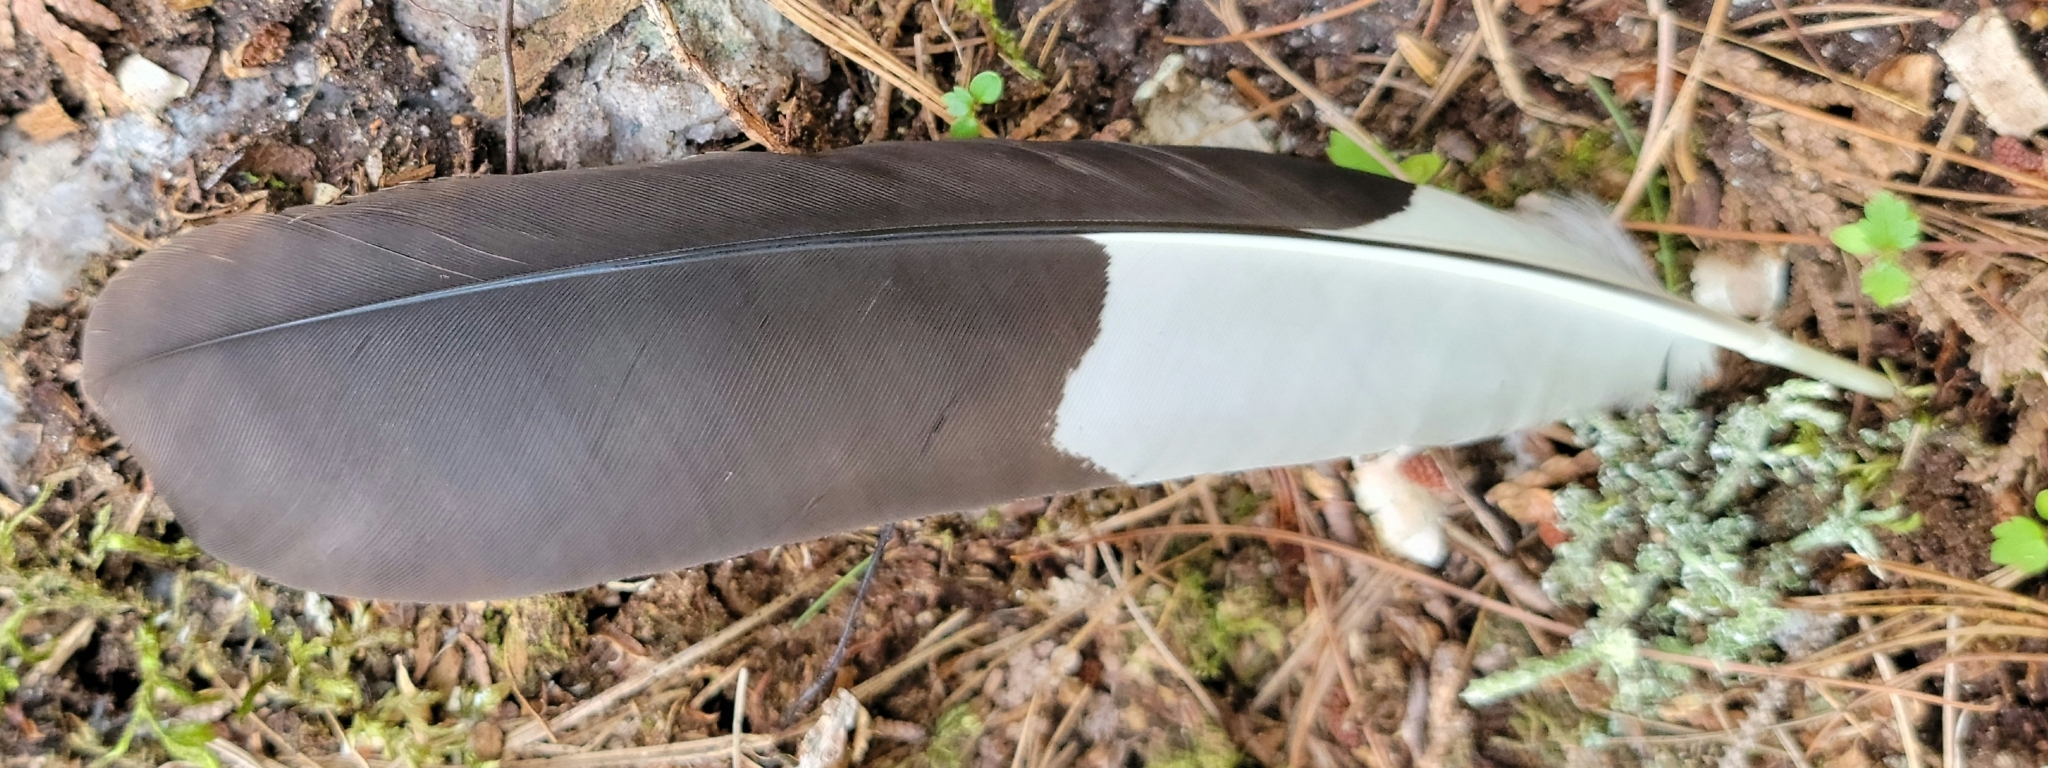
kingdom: Animalia
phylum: Chordata
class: Aves
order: Piciformes
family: Picidae
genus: Dryocopus
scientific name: Dryocopus pileatus
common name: Pileated woodpecker
